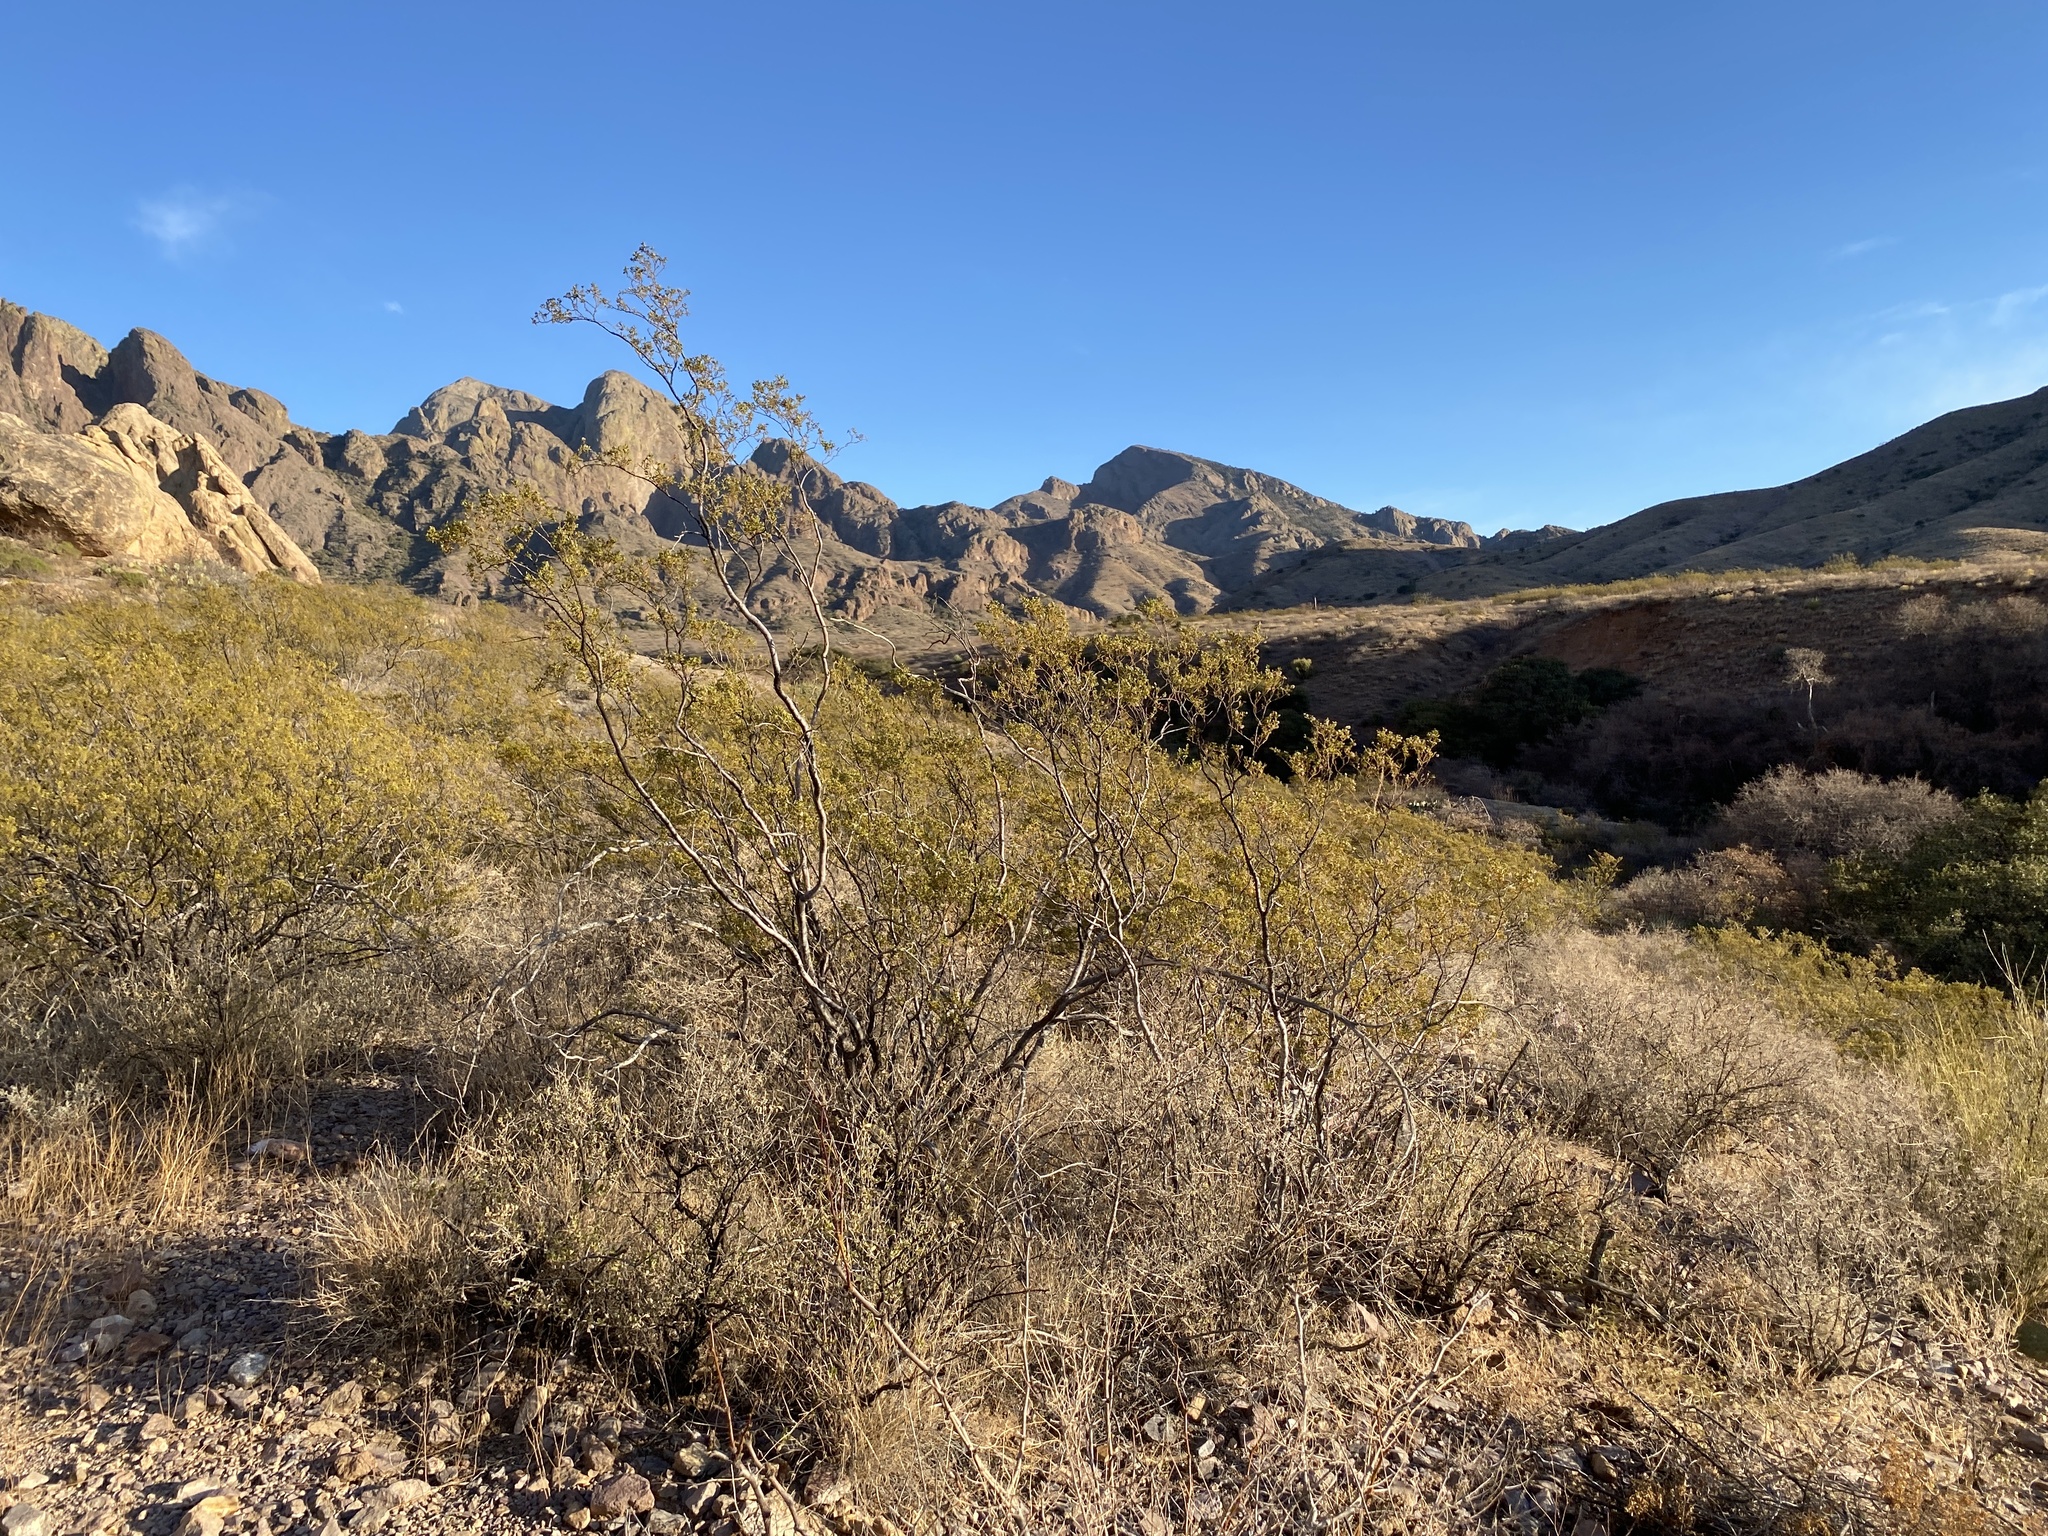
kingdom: Plantae
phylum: Tracheophyta
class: Magnoliopsida
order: Zygophyllales
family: Zygophyllaceae
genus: Larrea
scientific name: Larrea tridentata
